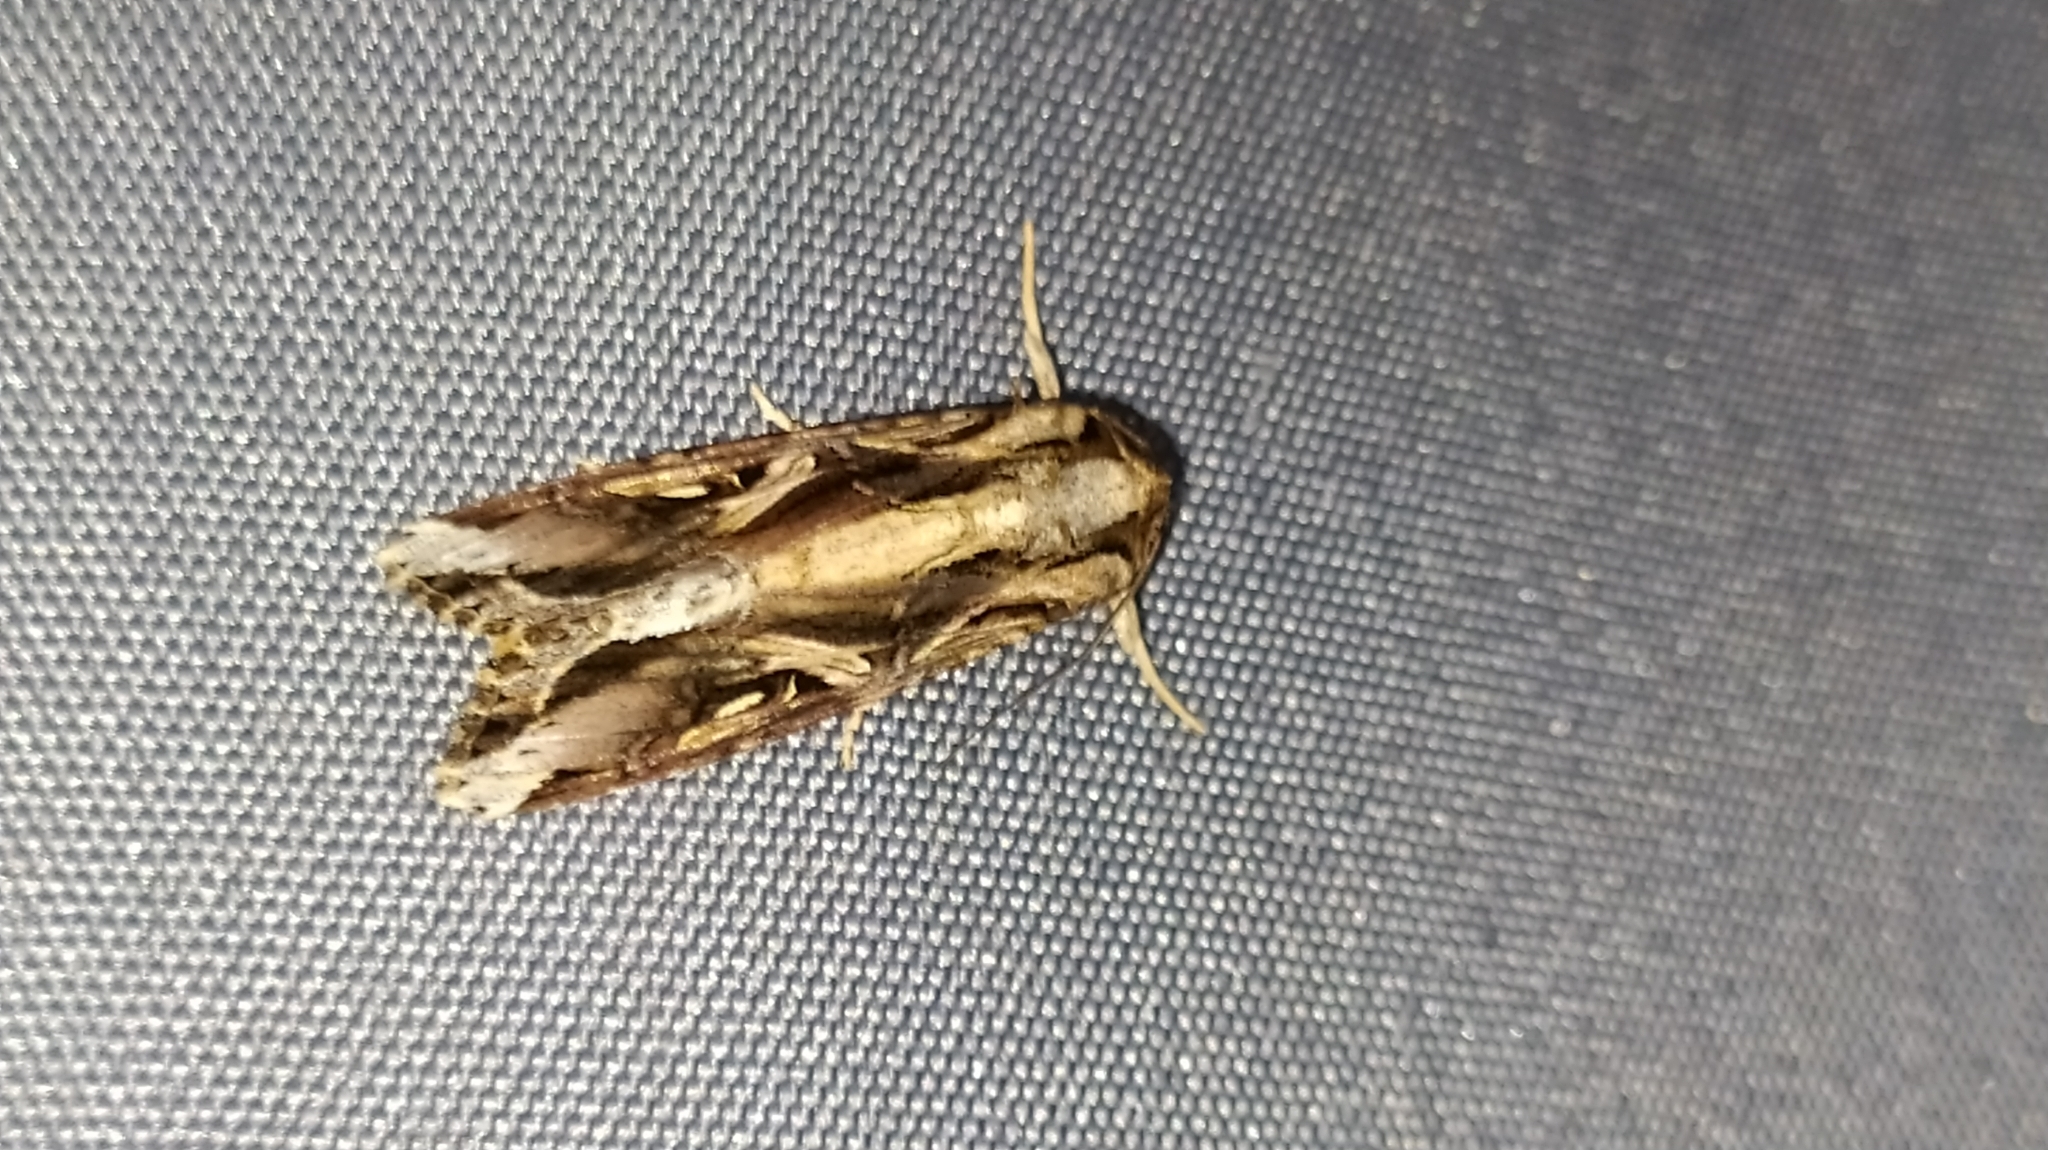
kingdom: Animalia
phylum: Arthropoda
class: Insecta
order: Lepidoptera
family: Noctuidae
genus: Spodoptera
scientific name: Spodoptera dolichos
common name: Sweetpotato armyworm
